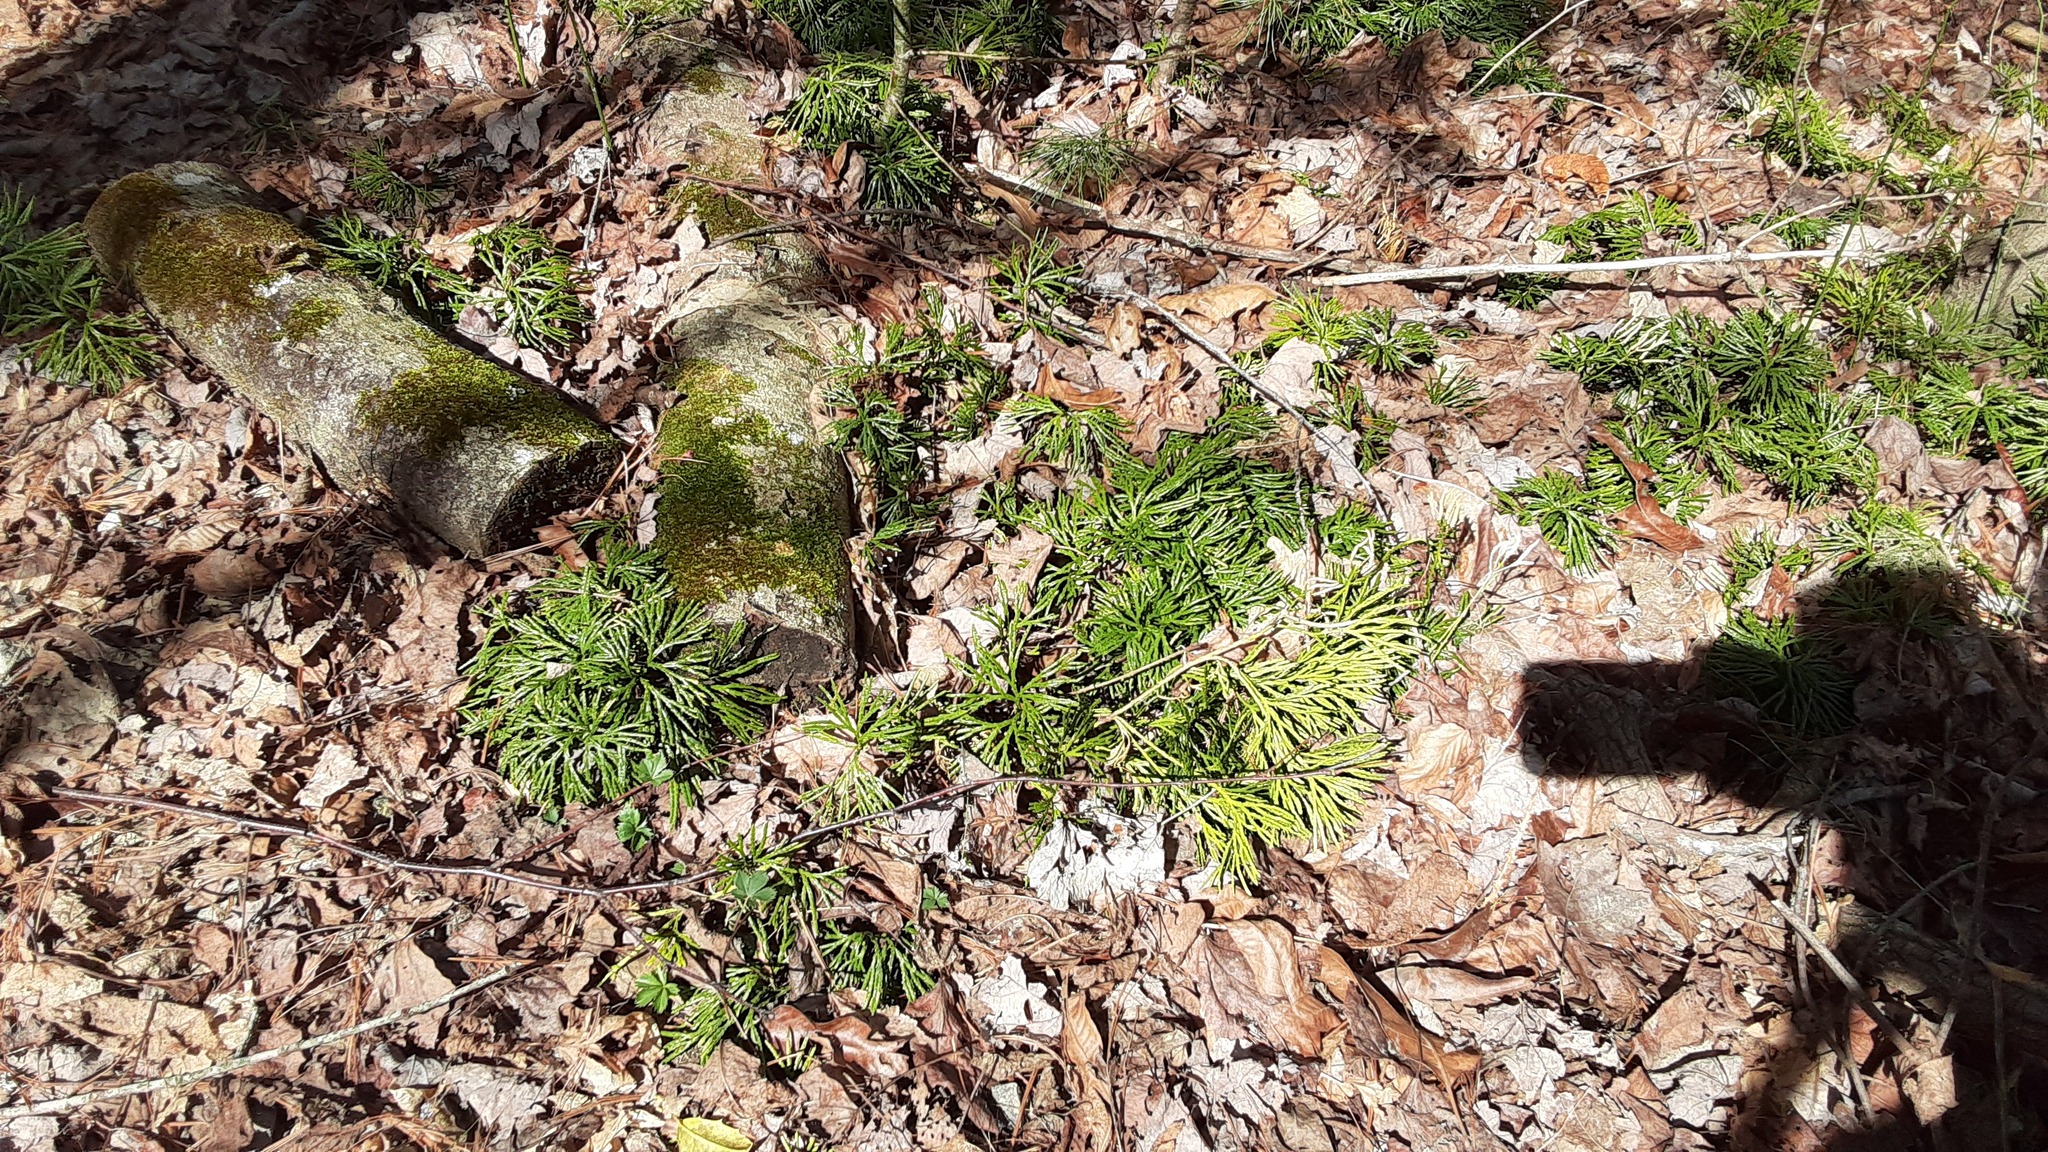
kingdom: Plantae
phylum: Tracheophyta
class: Lycopodiopsida
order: Lycopodiales
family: Lycopodiaceae
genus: Diphasiastrum
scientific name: Diphasiastrum digitatum
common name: Southern running-pine
